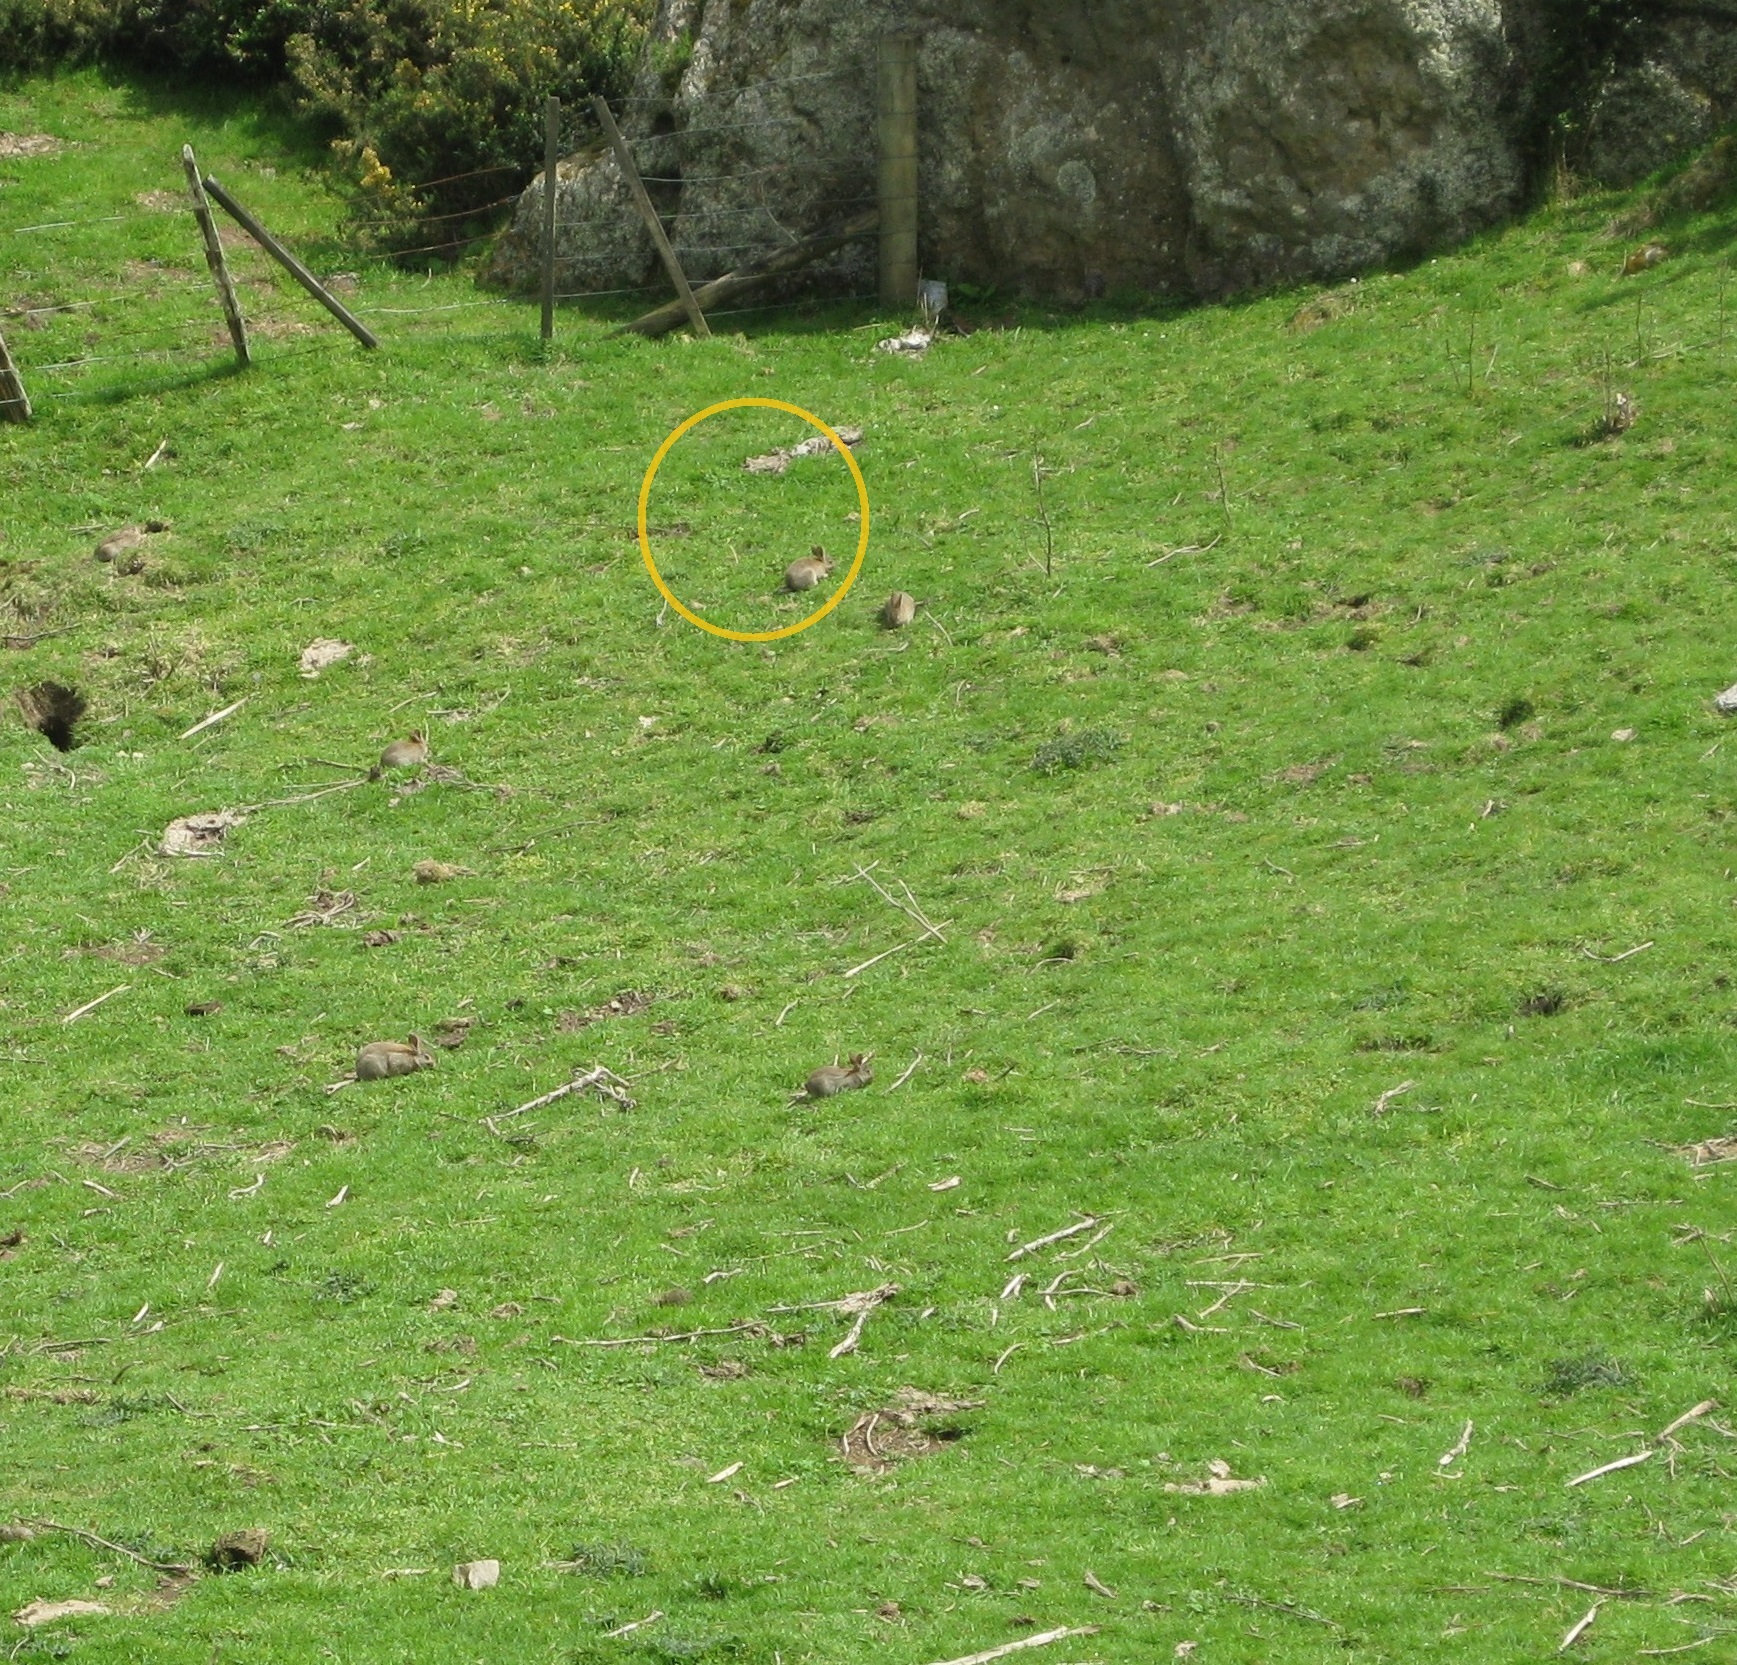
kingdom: Animalia
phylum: Chordata
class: Mammalia
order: Lagomorpha
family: Leporidae
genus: Oryctolagus
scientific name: Oryctolagus cuniculus
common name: European rabbit
